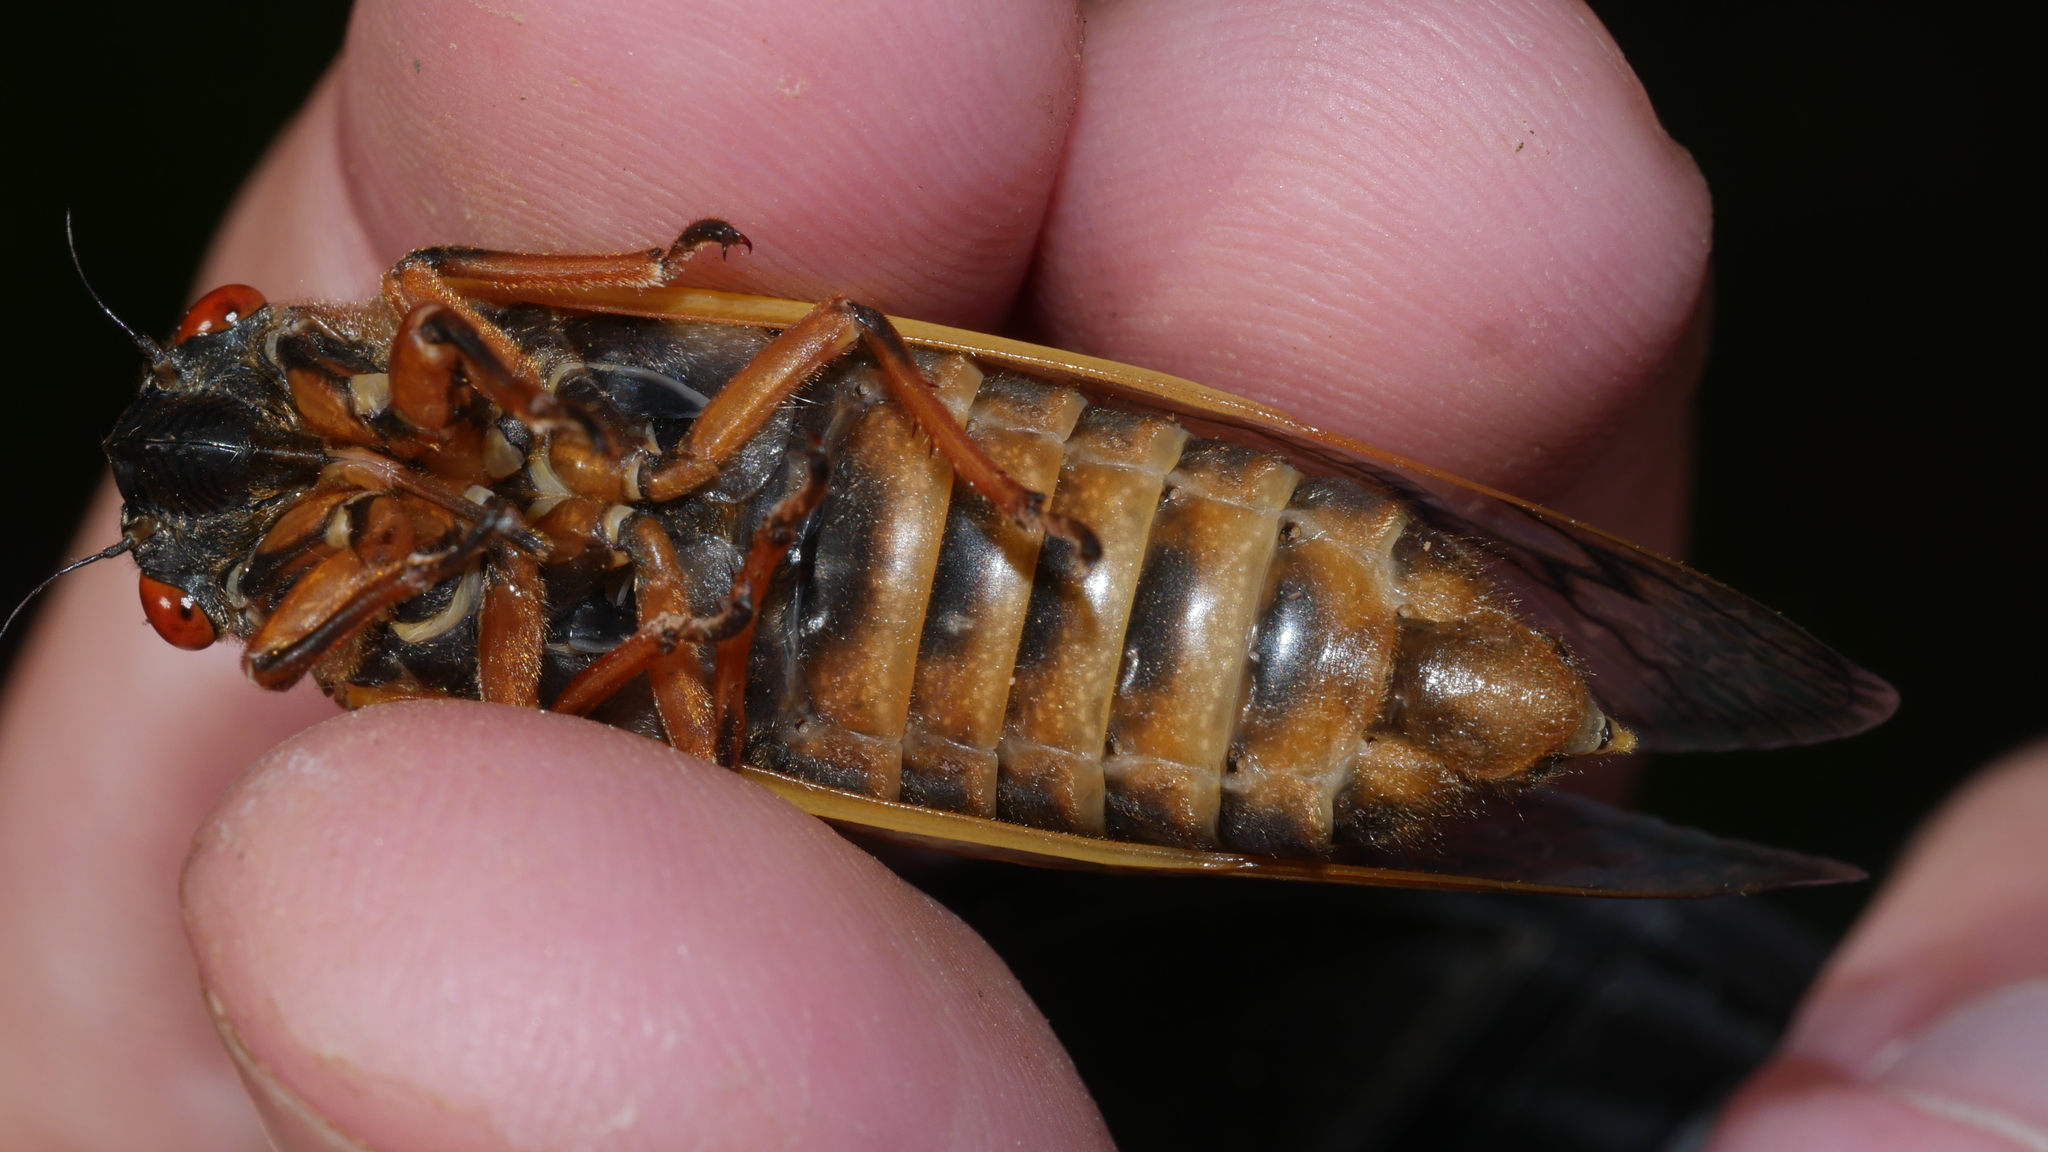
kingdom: Animalia
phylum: Arthropoda
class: Insecta
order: Hemiptera
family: Cicadidae
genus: Magicicada
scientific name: Magicicada septendecim
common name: Periodical cicada
